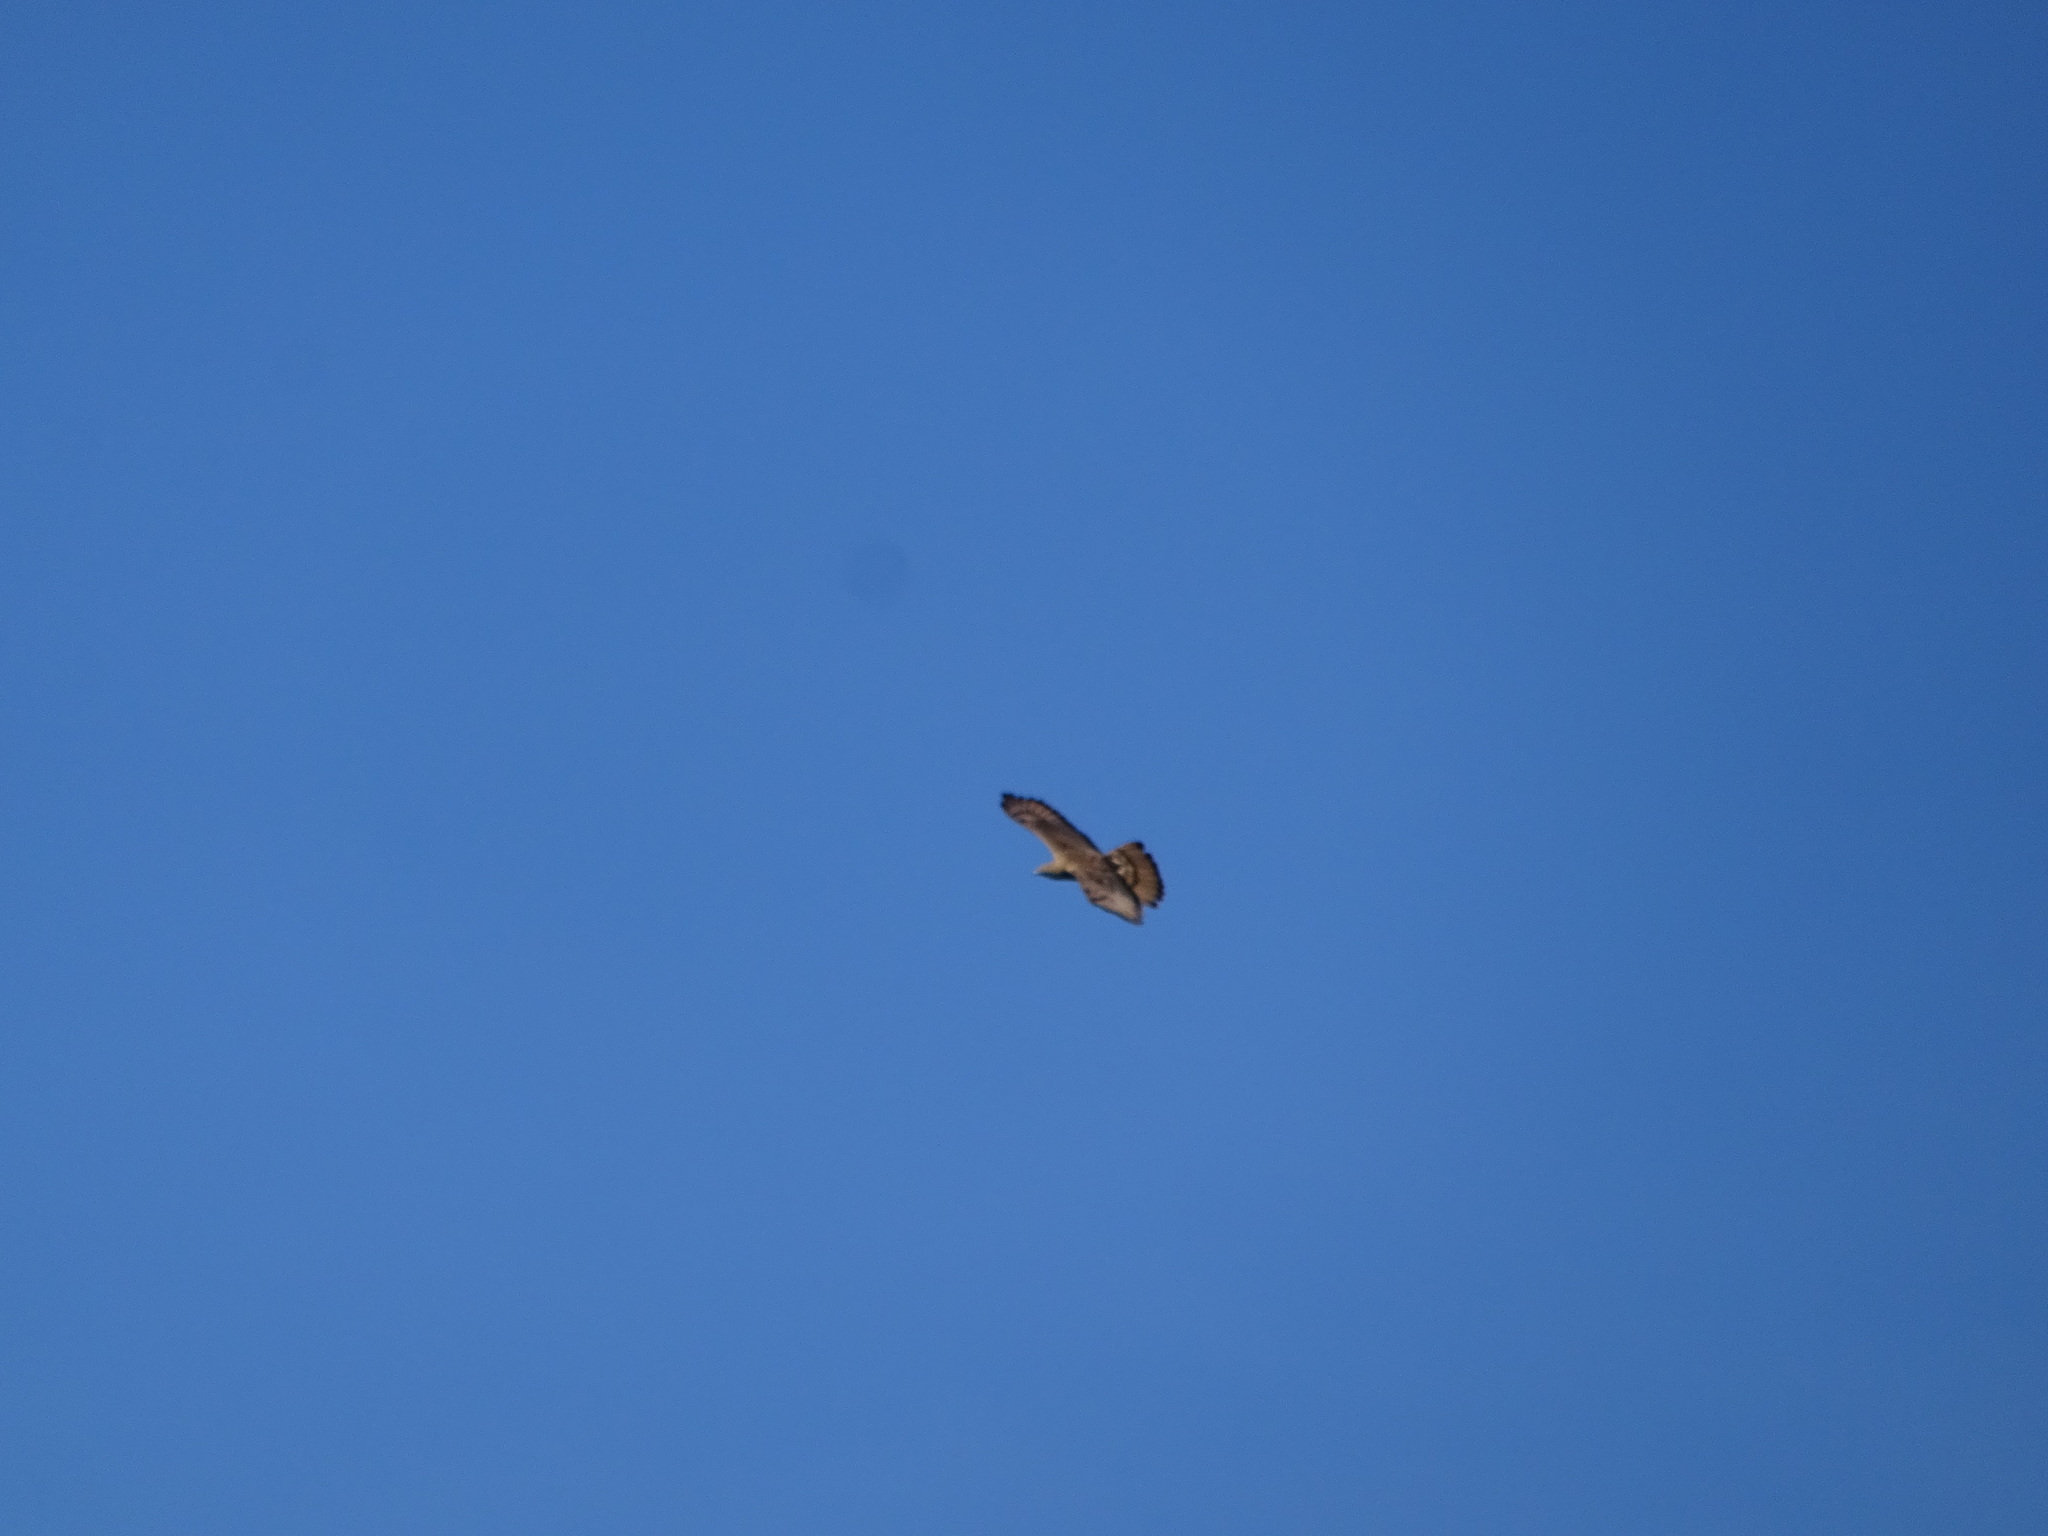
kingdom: Animalia
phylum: Chordata
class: Aves
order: Accipitriformes
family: Accipitridae
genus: Pernis
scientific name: Pernis apivorus
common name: European honey buzzard
